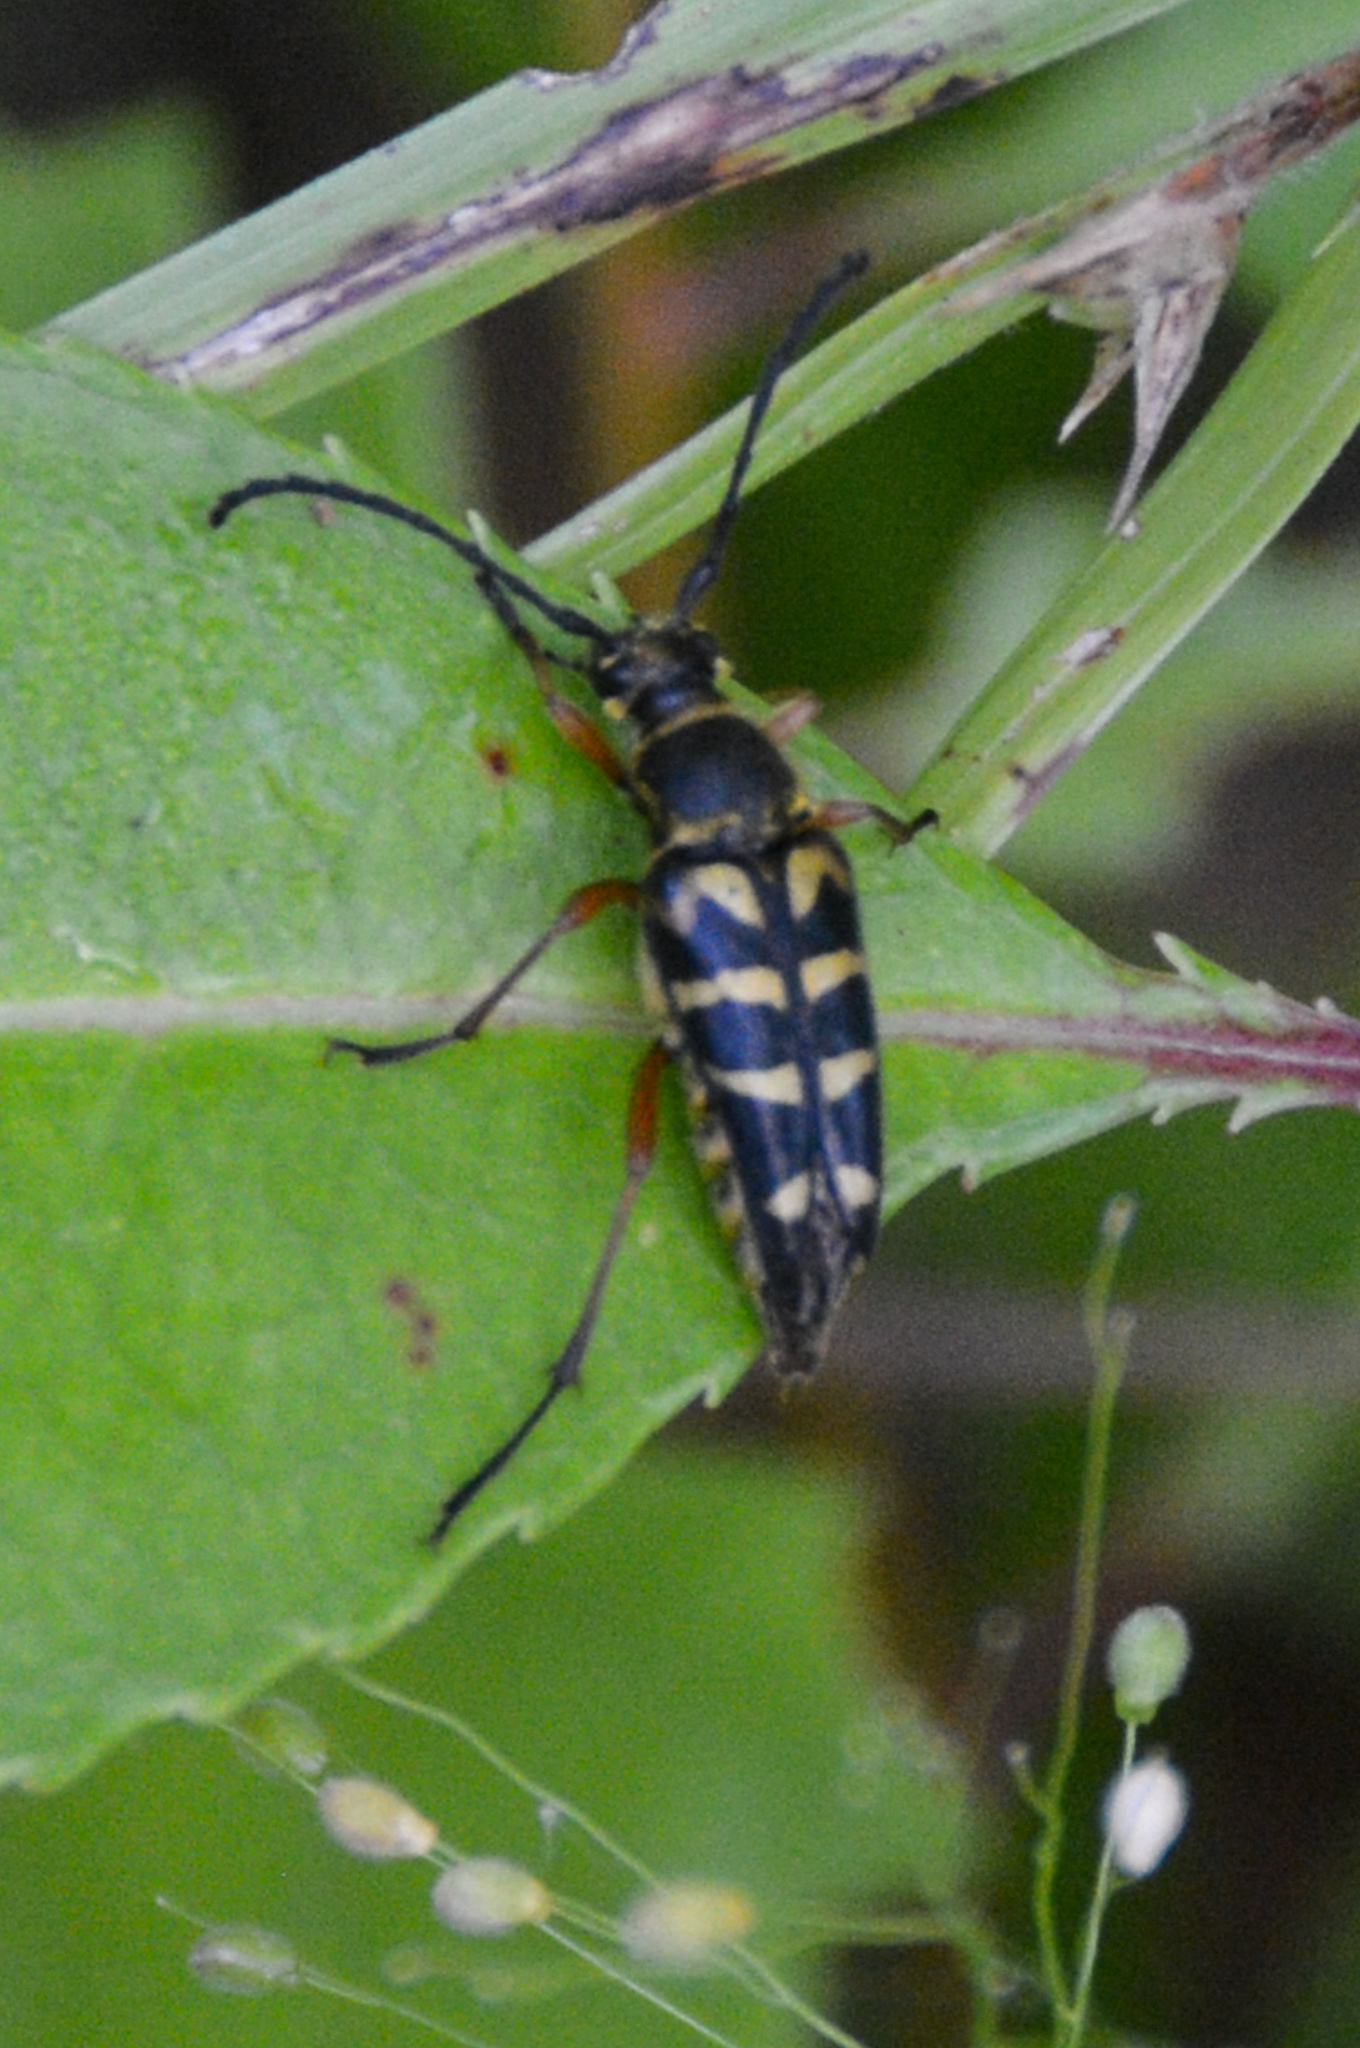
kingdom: Animalia
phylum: Arthropoda
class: Insecta
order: Coleoptera
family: Cerambycidae
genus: Typocerus
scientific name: Typocerus zebra
